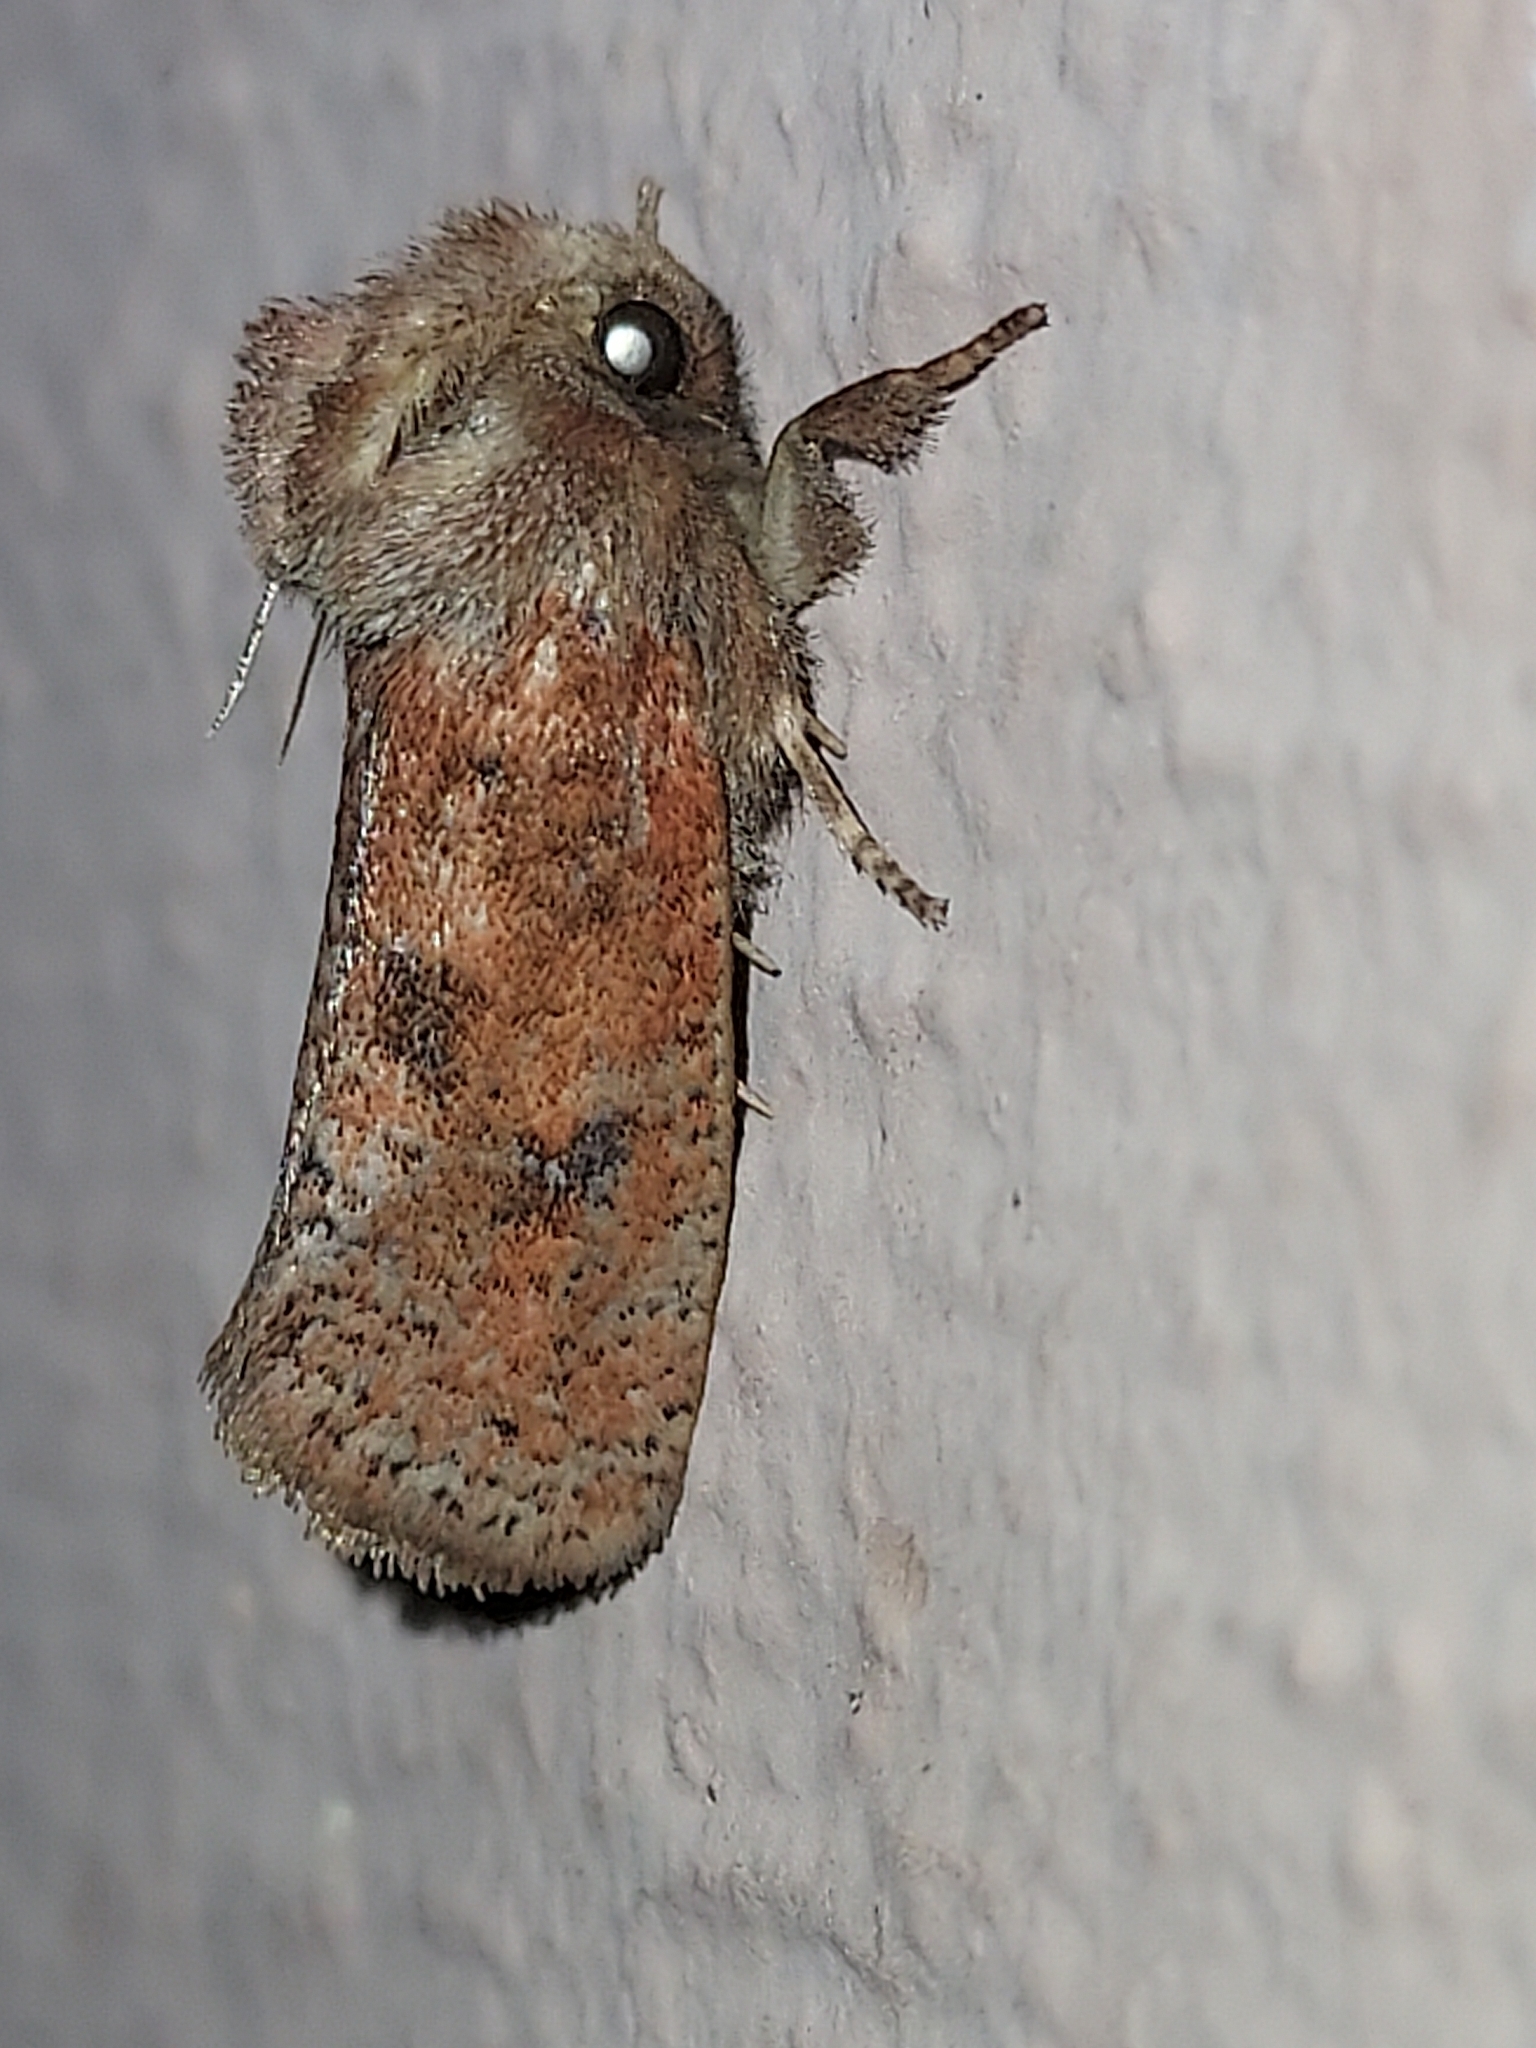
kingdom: Animalia
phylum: Arthropoda
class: Insecta
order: Lepidoptera
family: Tineidae
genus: Acrolophus
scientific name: Acrolophus plumifrontella
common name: Eastern grass tubeworm moth
